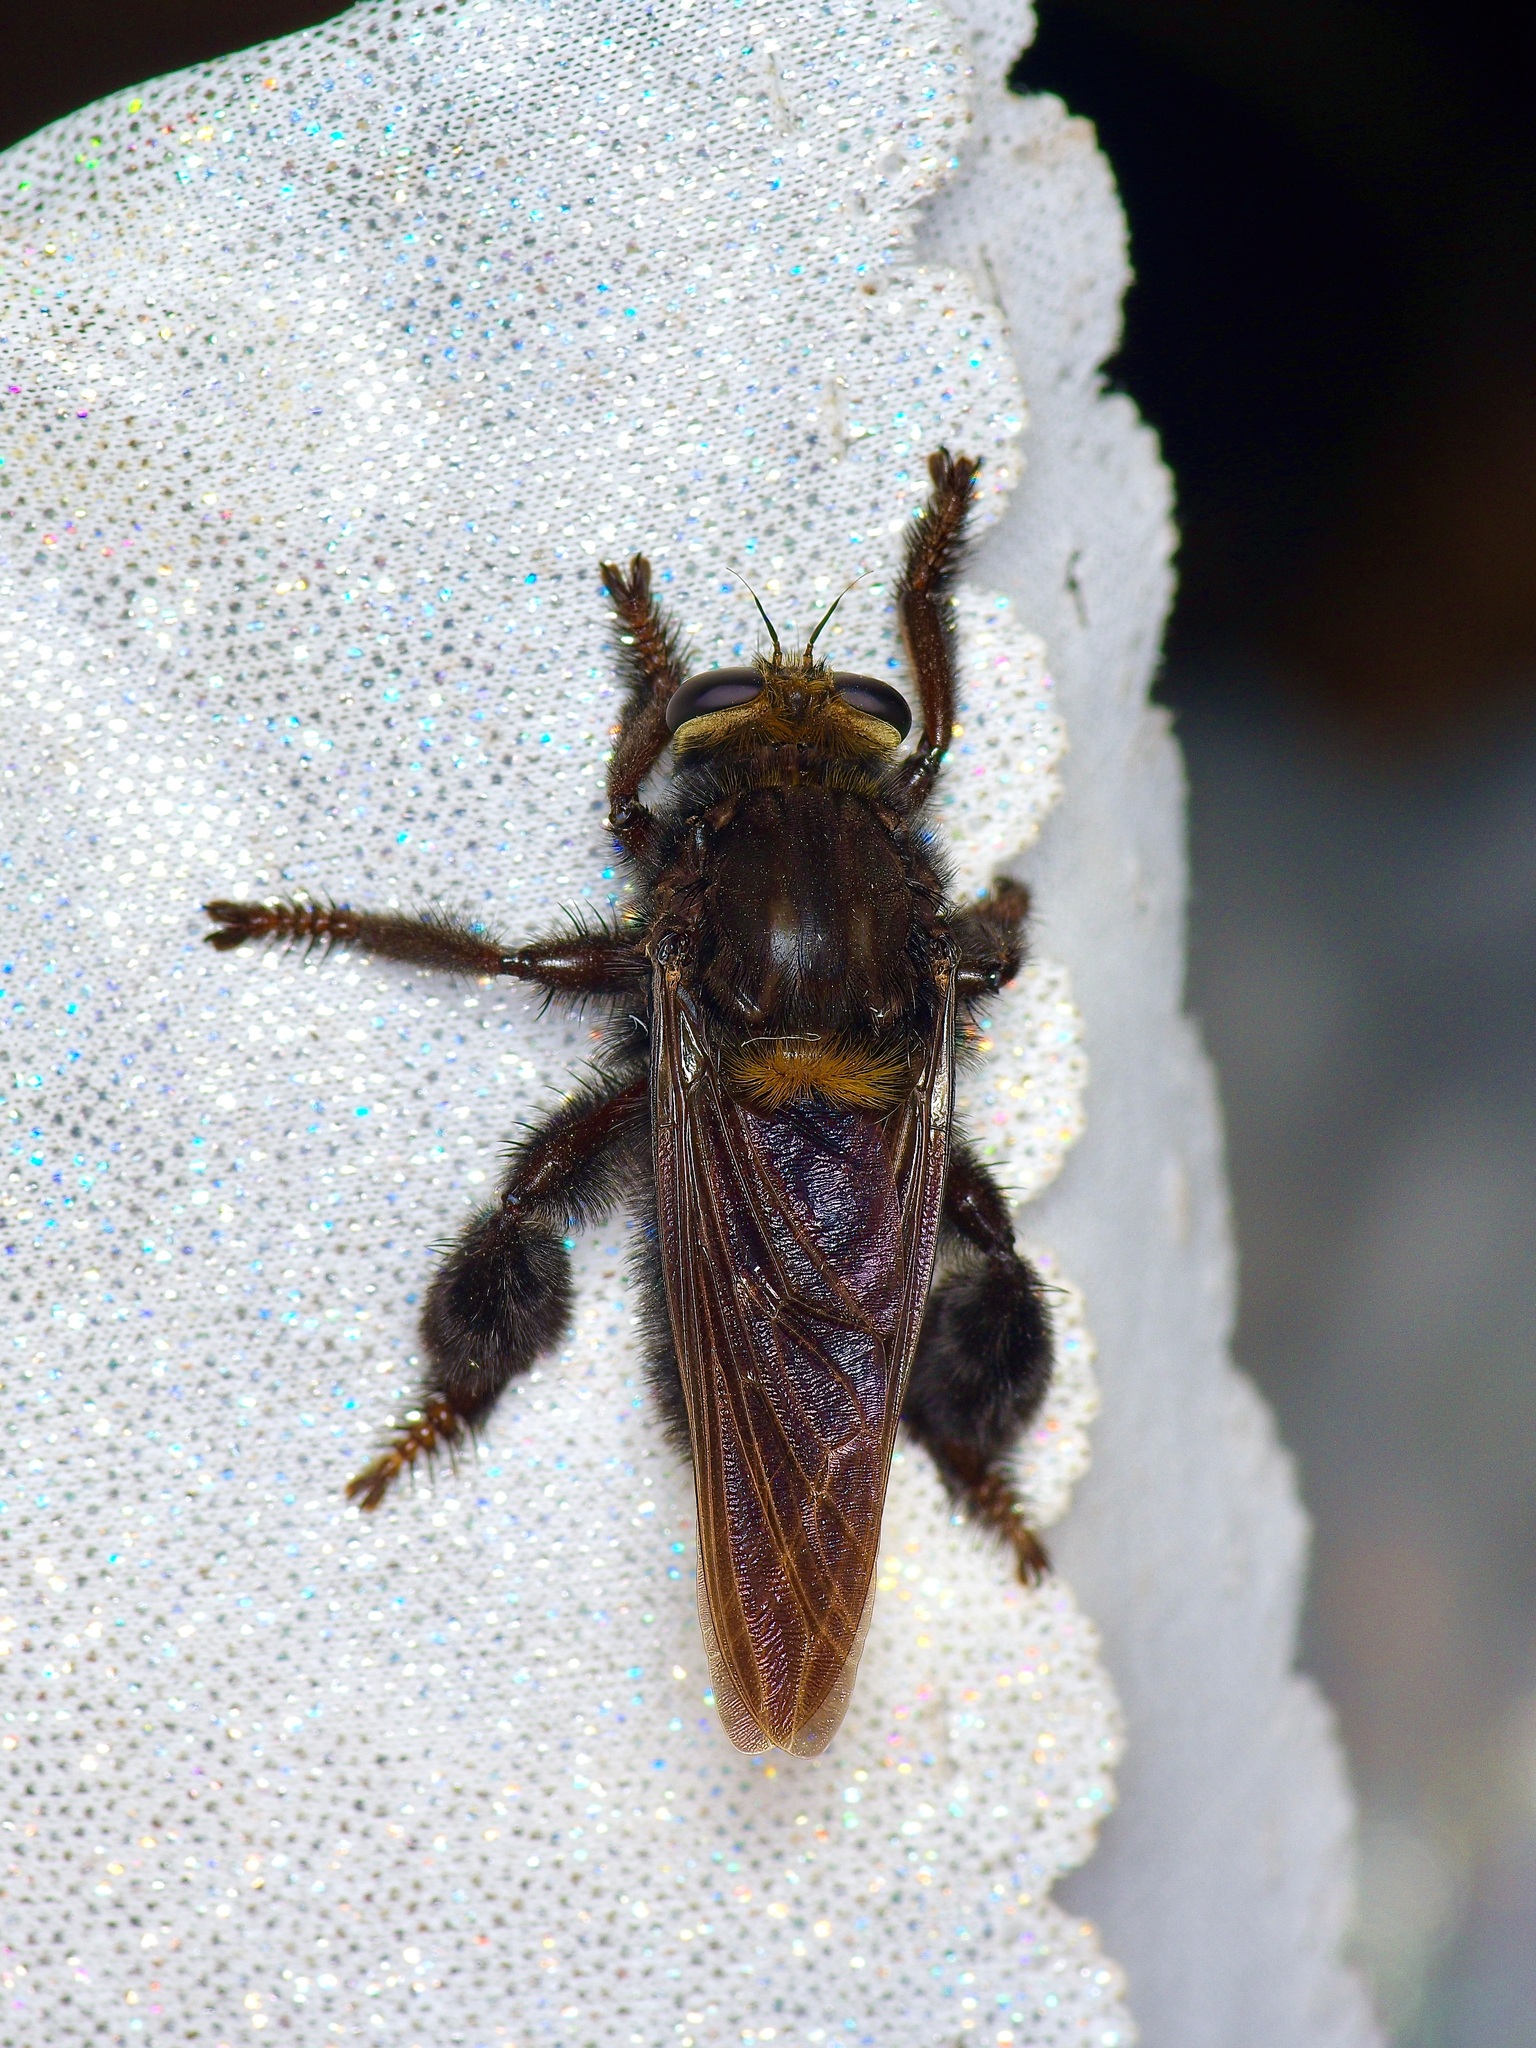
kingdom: Animalia
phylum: Arthropoda
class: Insecta
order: Diptera
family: Asilidae
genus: Mallophora
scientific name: Mallophora leschenaultii
